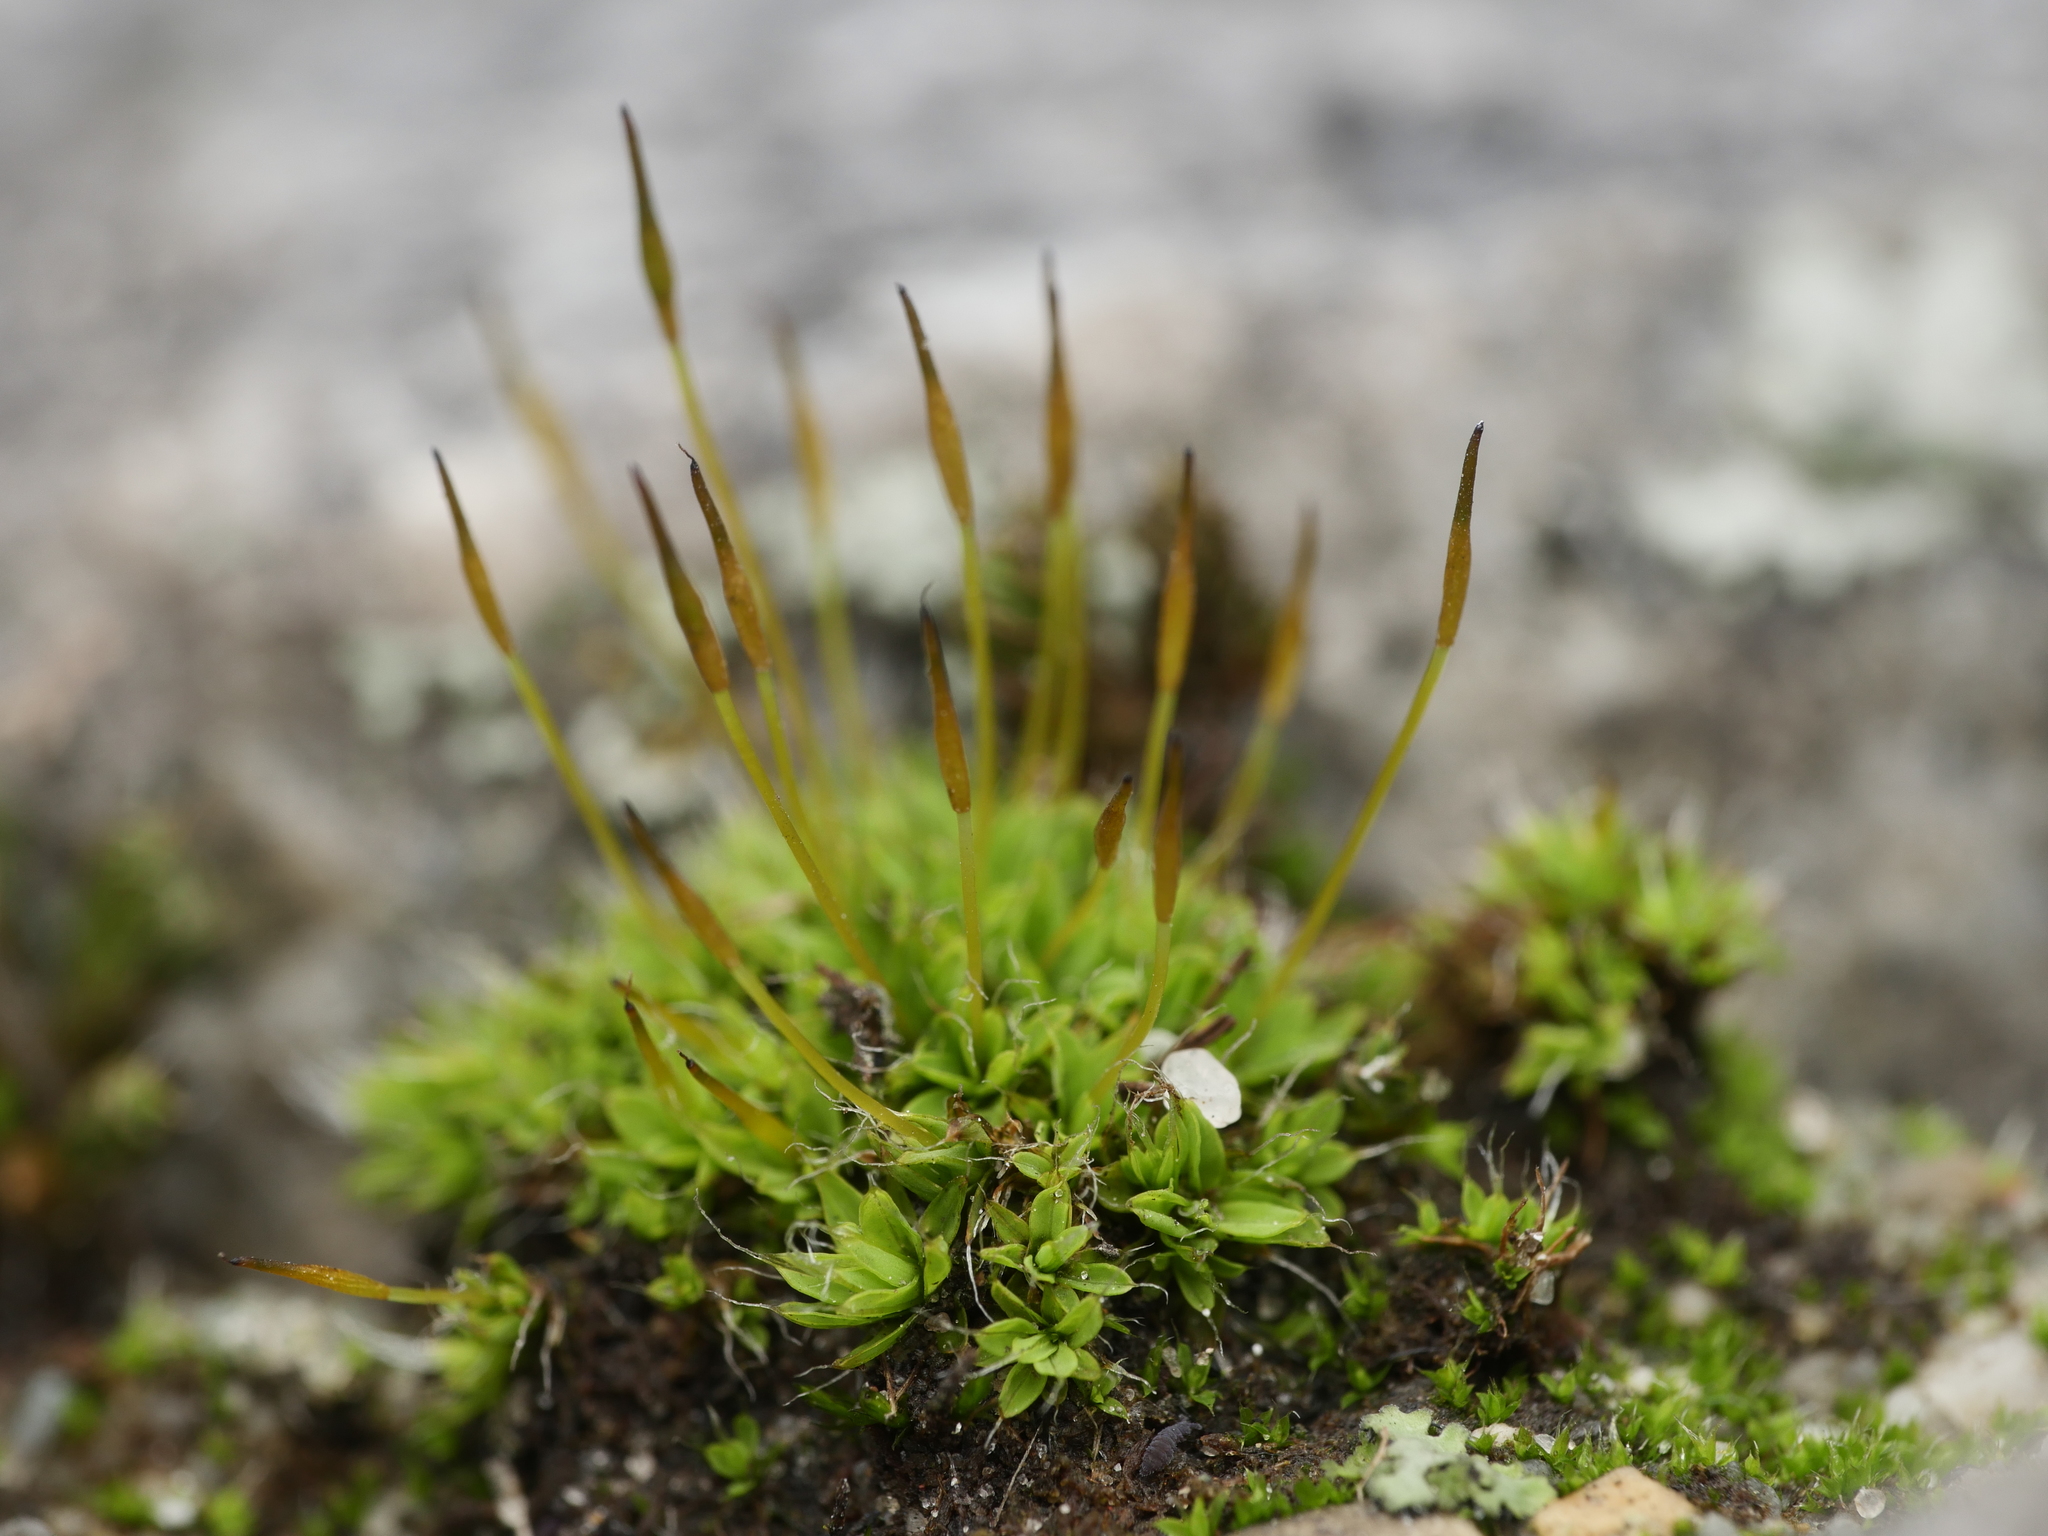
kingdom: Plantae
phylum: Bryophyta
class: Bryopsida
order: Pottiales
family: Pottiaceae
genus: Tortula
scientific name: Tortula muralis
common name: Wall screw-moss
